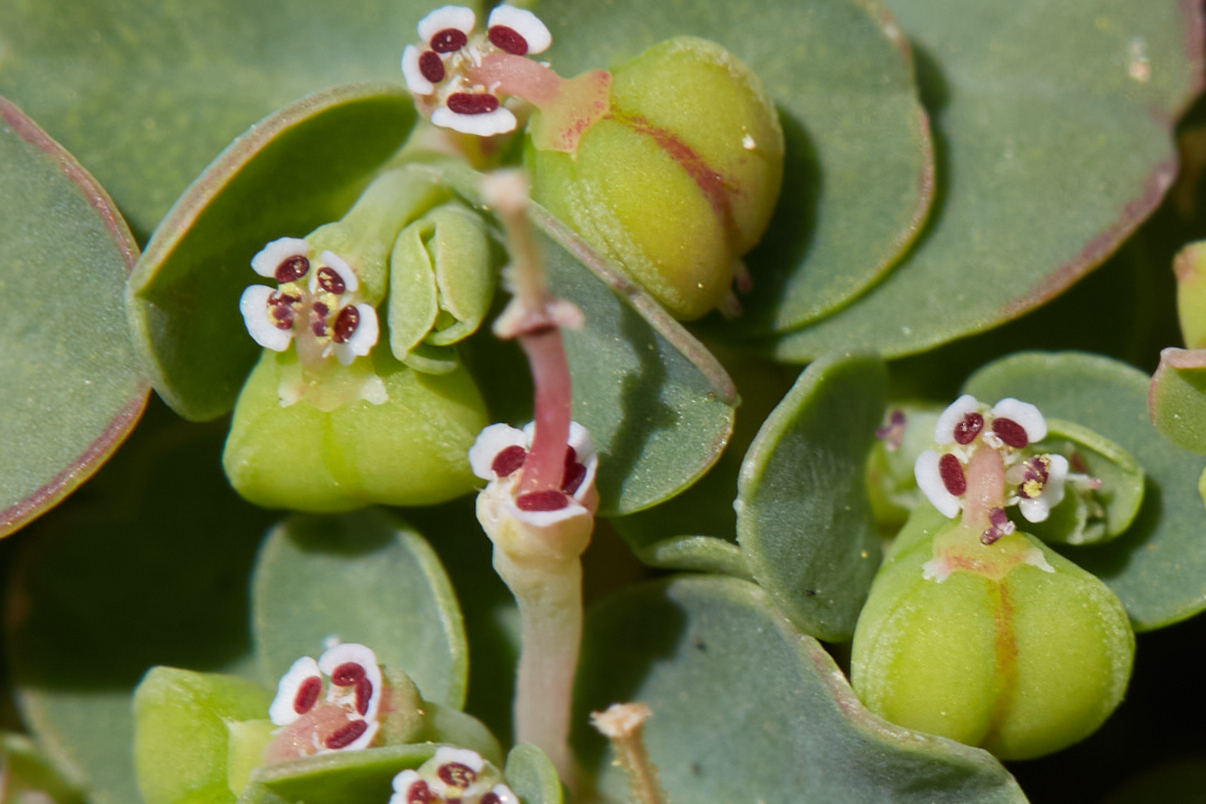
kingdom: Plantae
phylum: Tracheophyta
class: Magnoliopsida
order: Malpighiales
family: Euphorbiaceae
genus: Euphorbia
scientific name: Euphorbia serpens
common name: Matted sandmat
